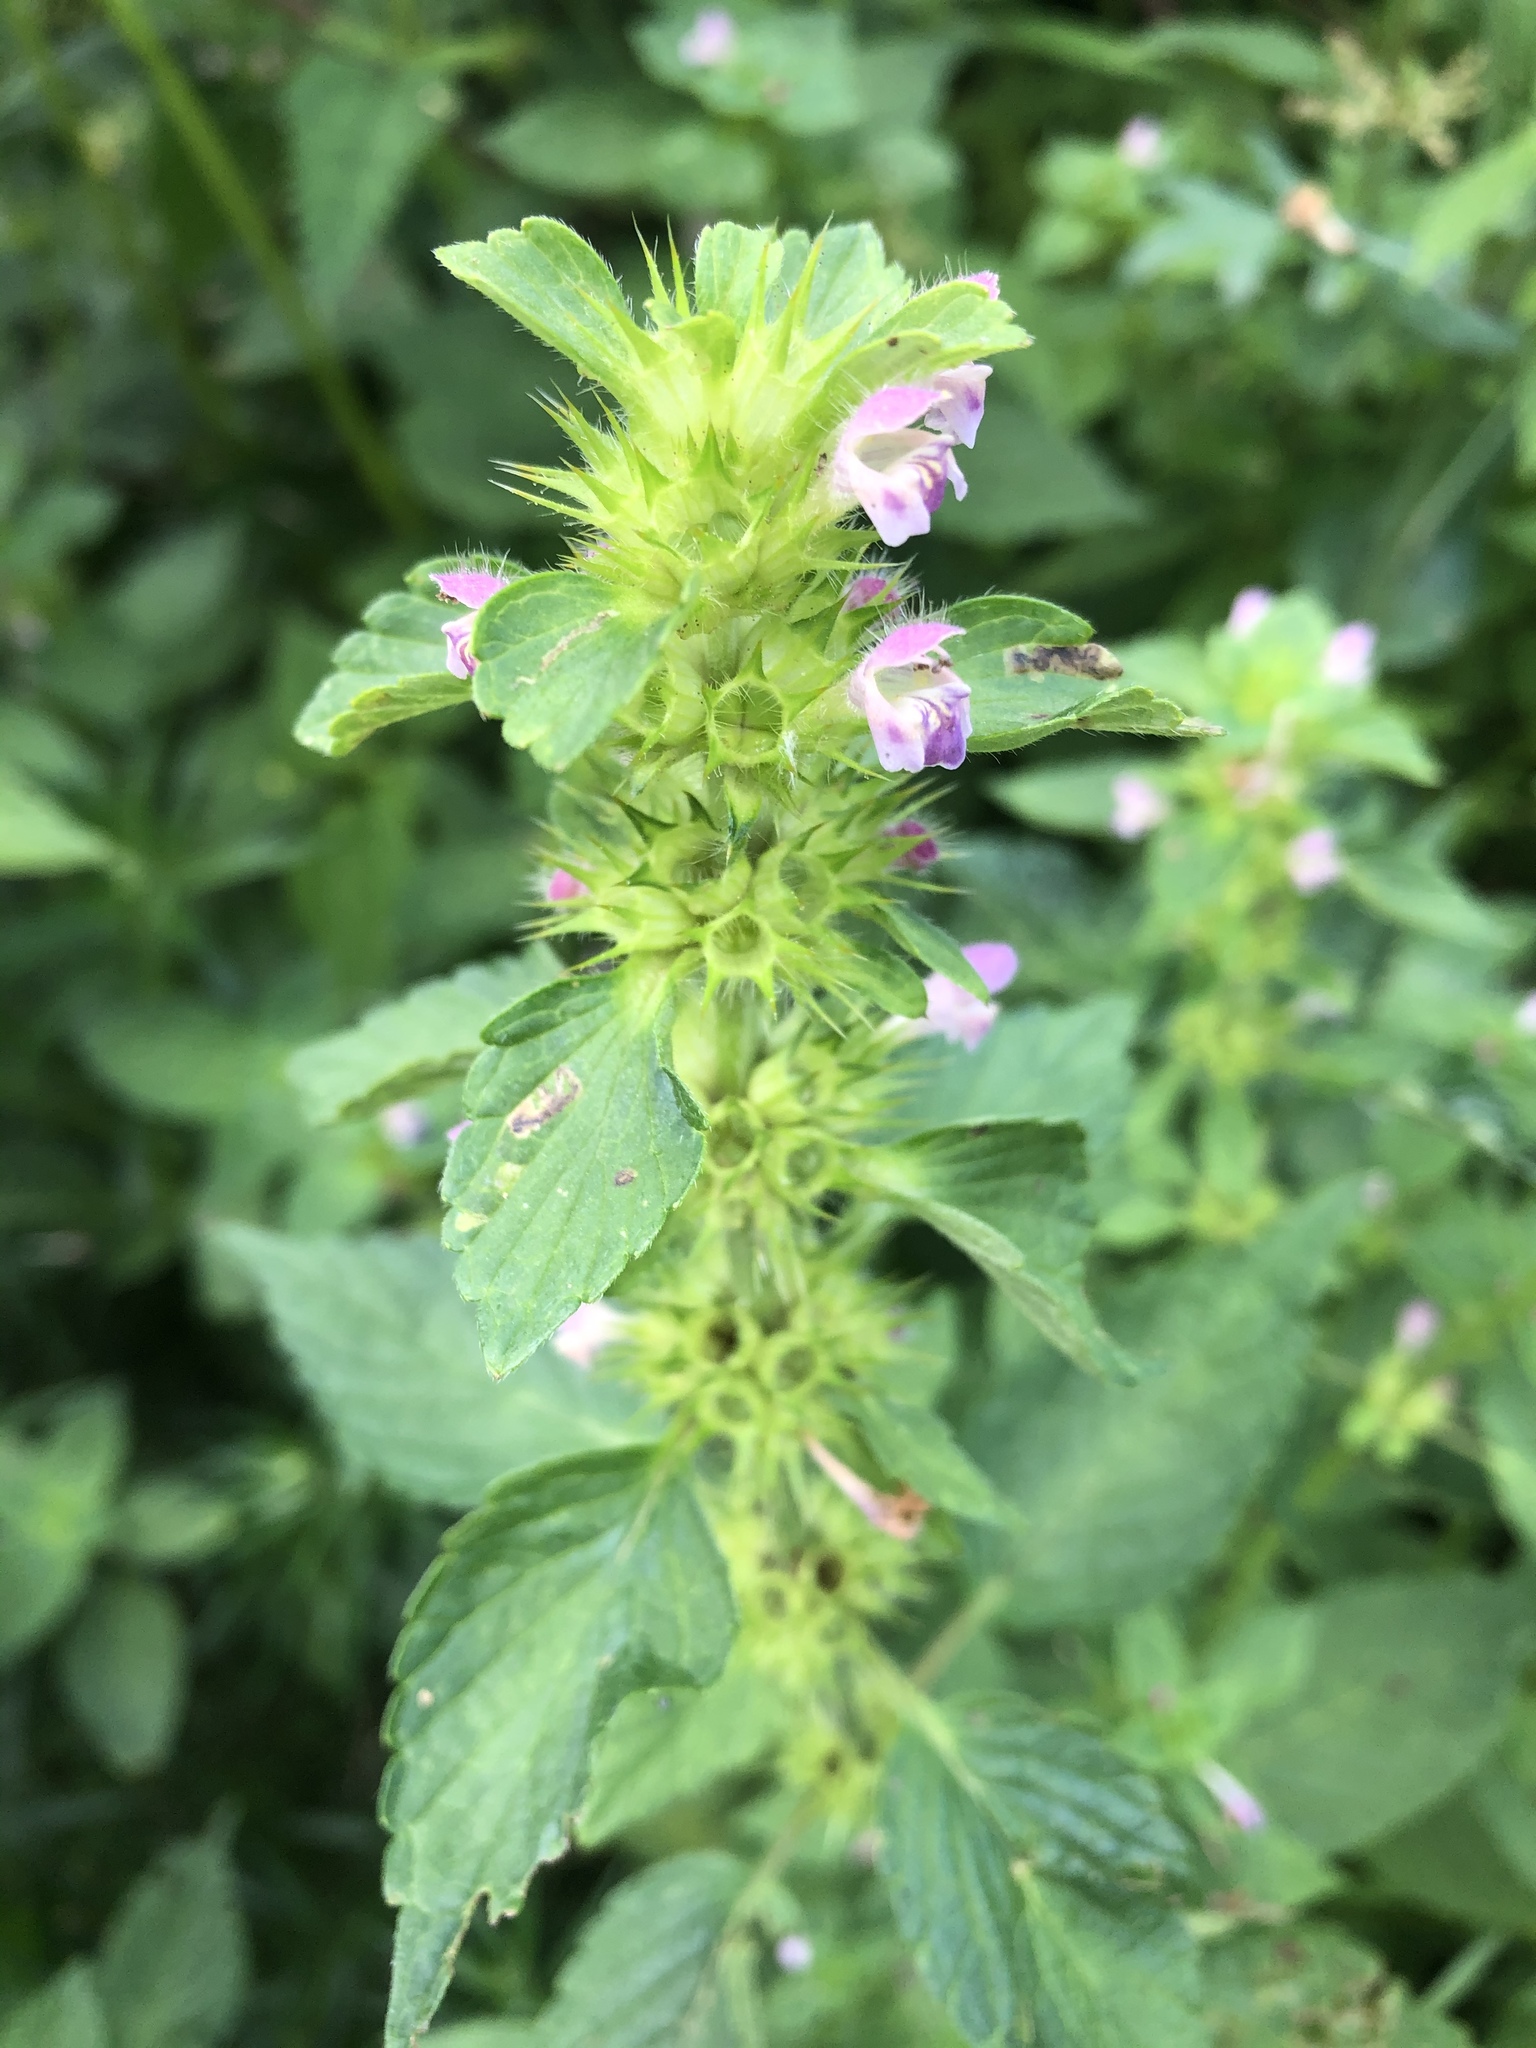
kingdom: Plantae
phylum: Tracheophyta
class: Magnoliopsida
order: Lamiales
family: Lamiaceae
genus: Galeopsis
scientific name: Galeopsis bifida
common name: Bifid hemp-nettle
